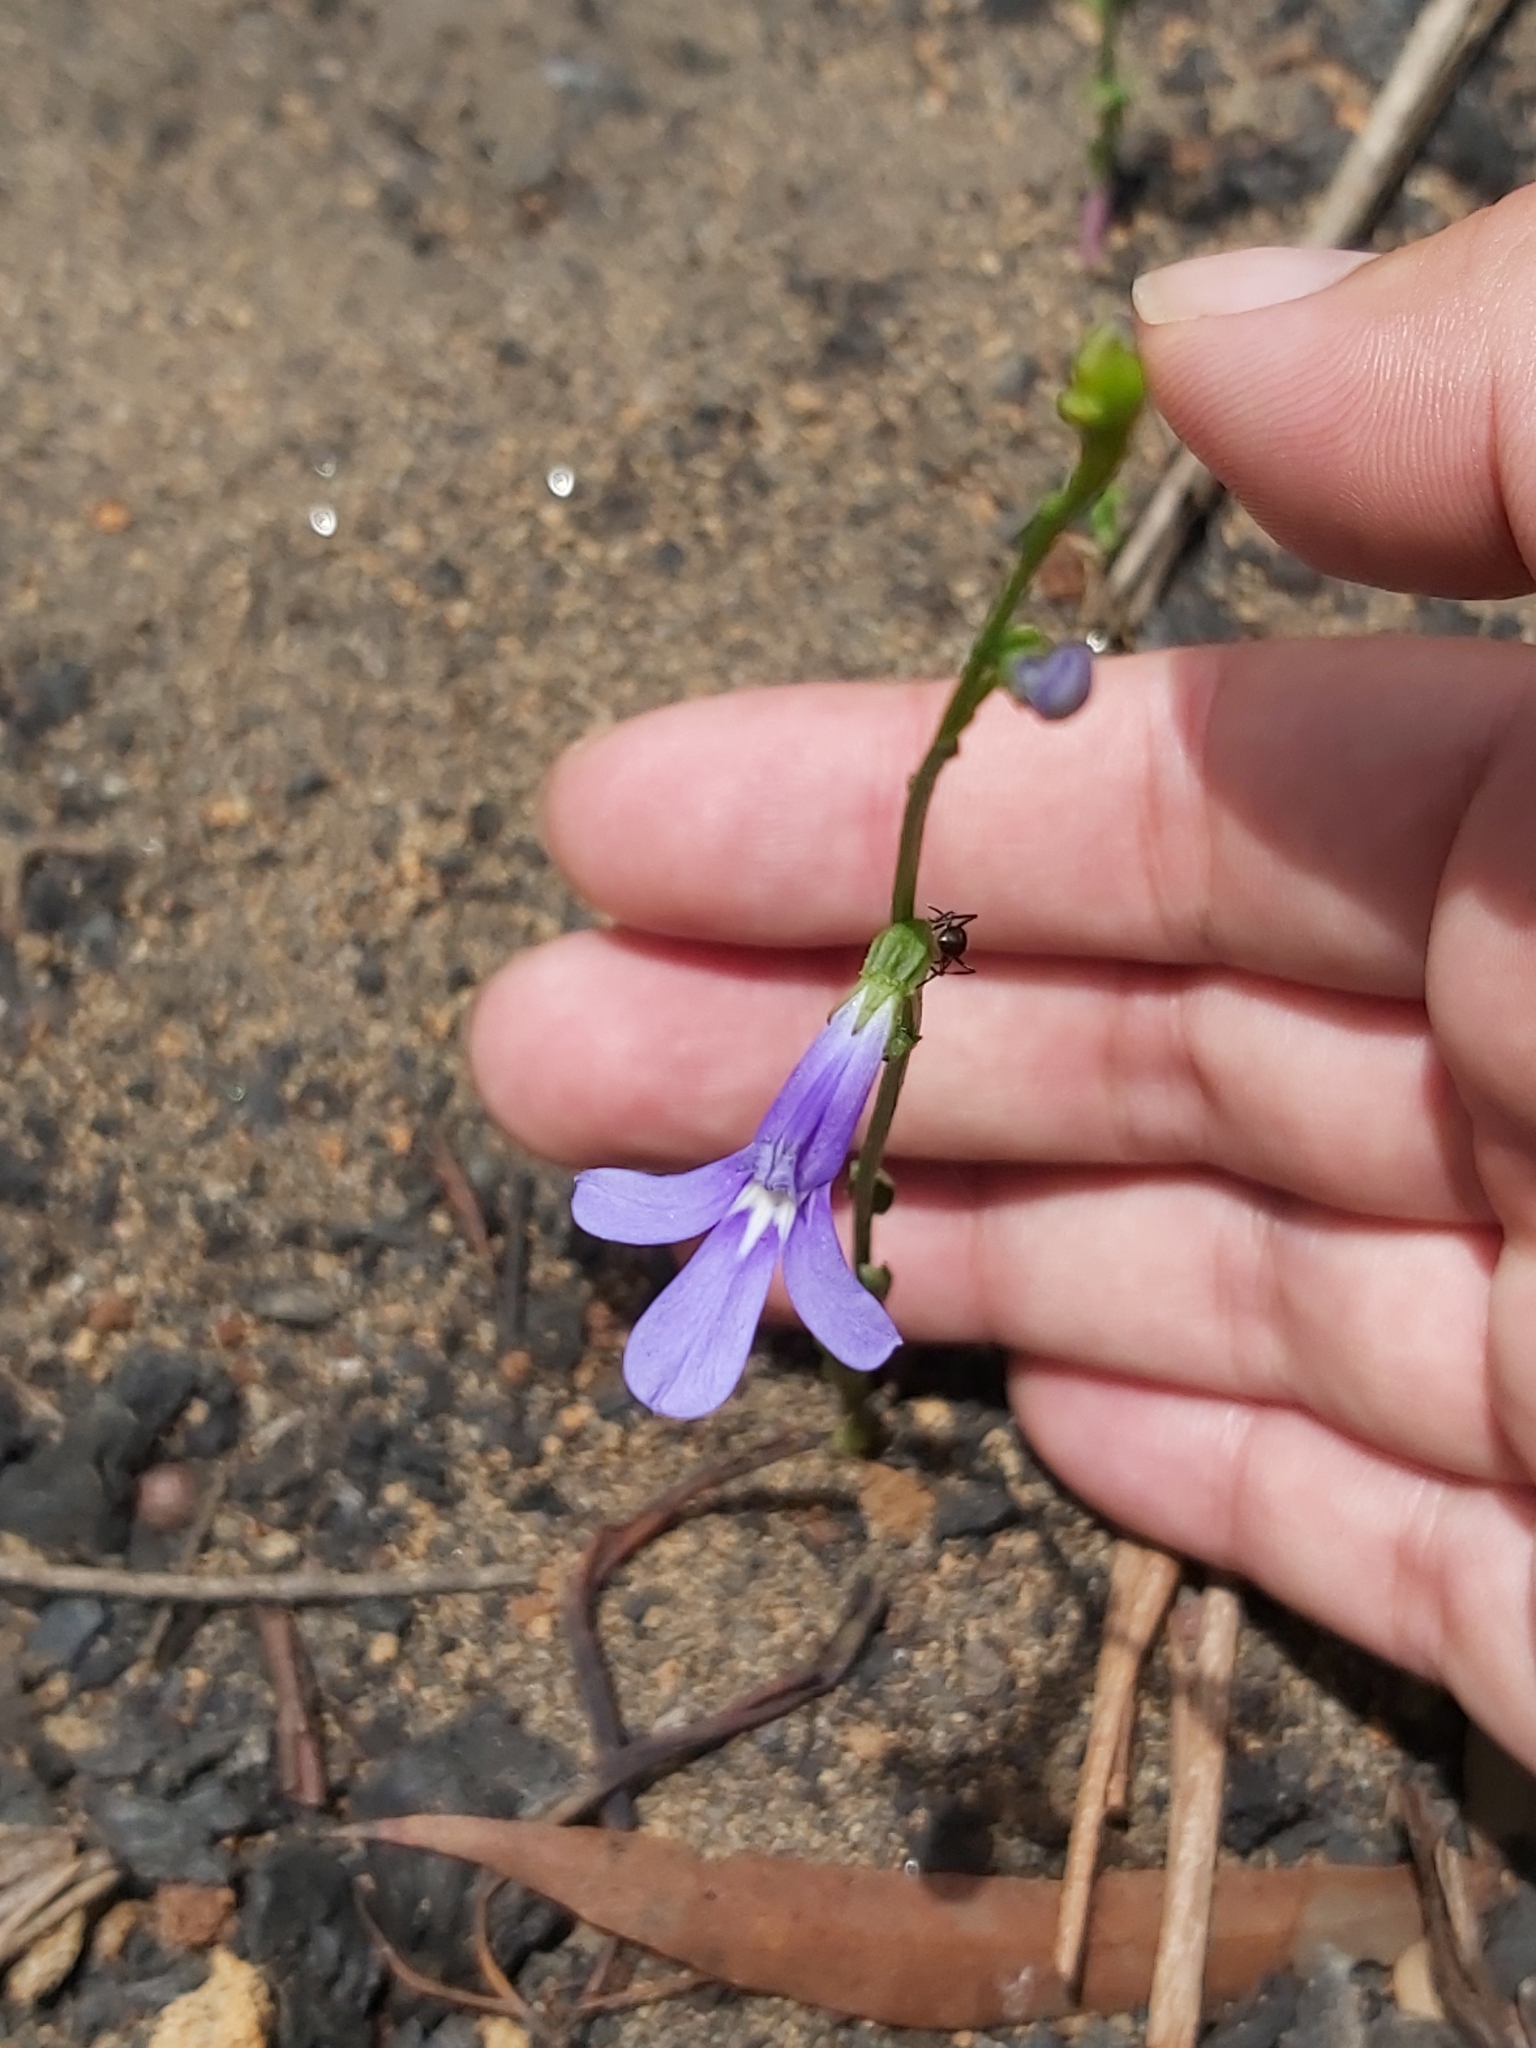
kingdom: Plantae
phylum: Tracheophyta
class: Magnoliopsida
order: Asterales
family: Campanulaceae
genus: Lobelia
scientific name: Lobelia gibbosa
